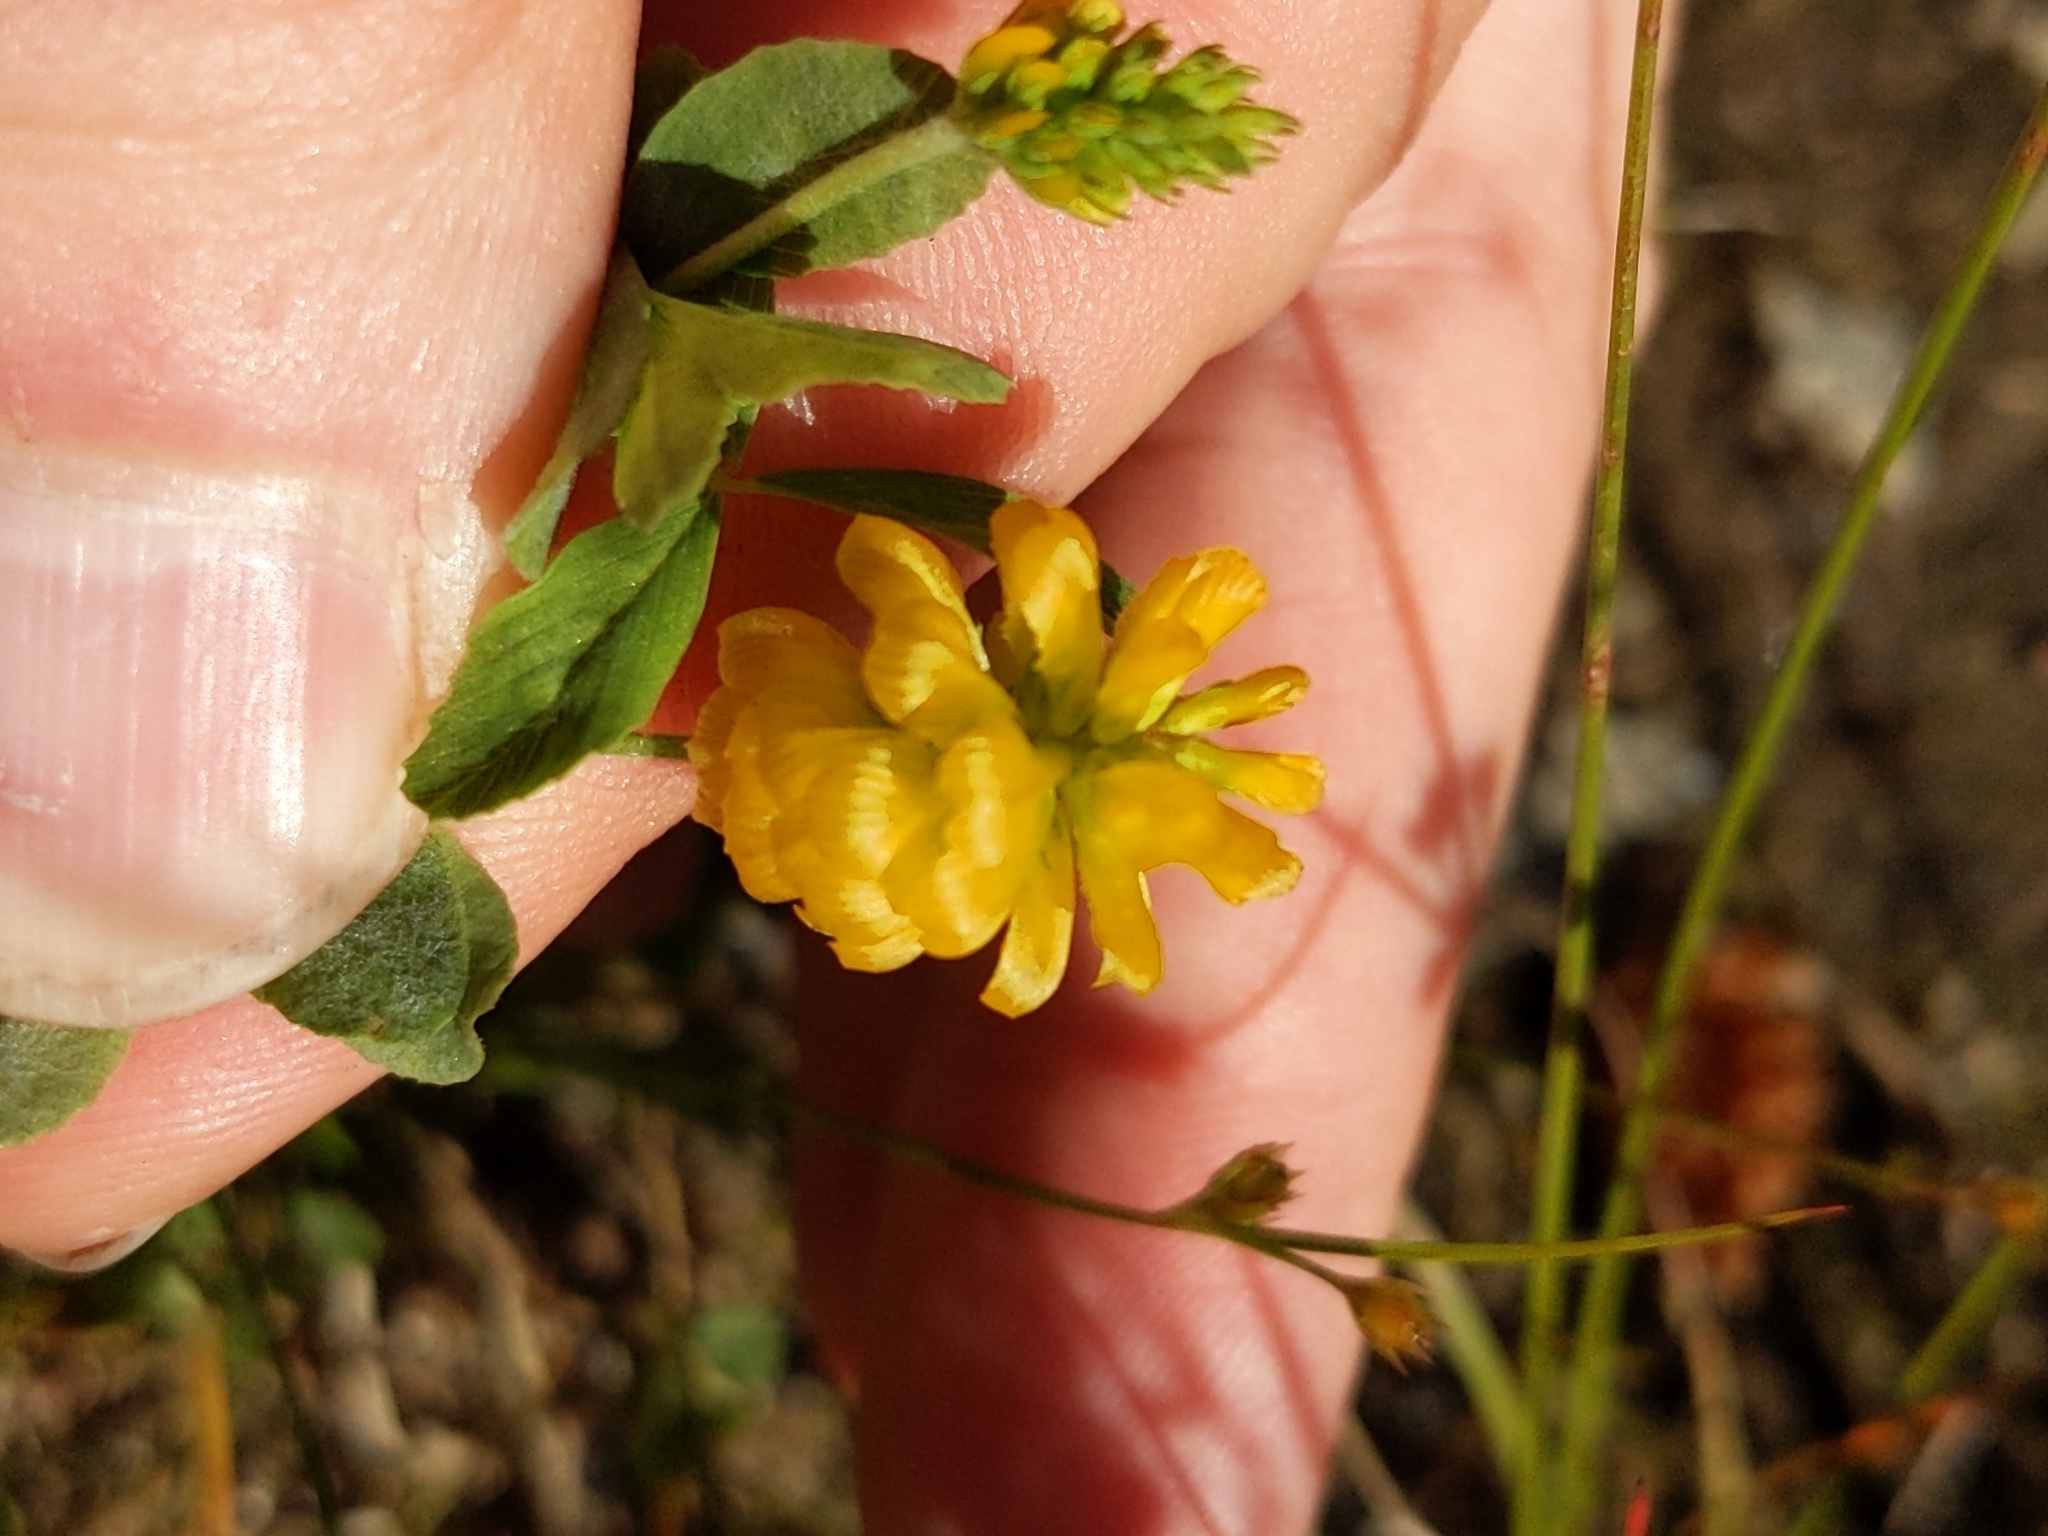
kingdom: Plantae
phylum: Tracheophyta
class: Magnoliopsida
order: Fabales
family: Fabaceae
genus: Trifolium
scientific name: Trifolium aureum
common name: Golden clover
